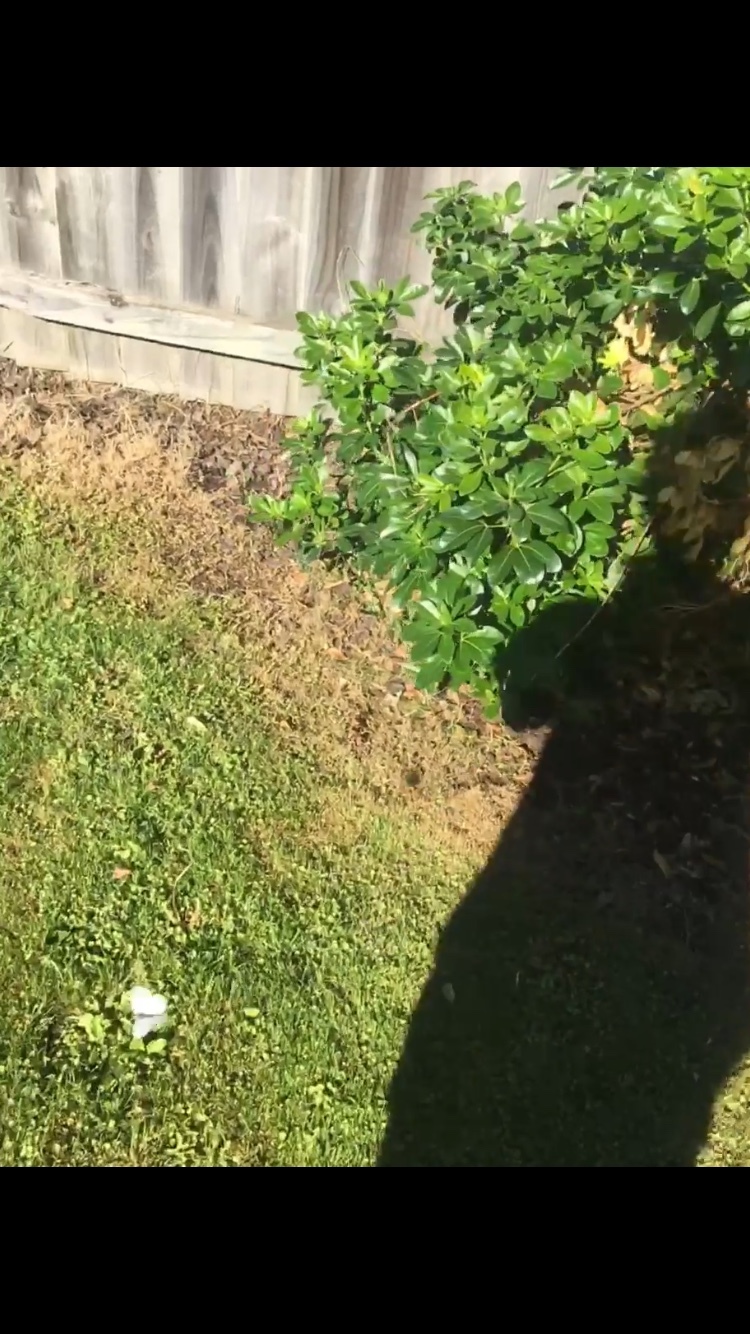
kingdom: Animalia
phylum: Arthropoda
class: Insecta
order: Lepidoptera
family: Pieridae
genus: Pieris
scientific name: Pieris rapae
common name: Small white
